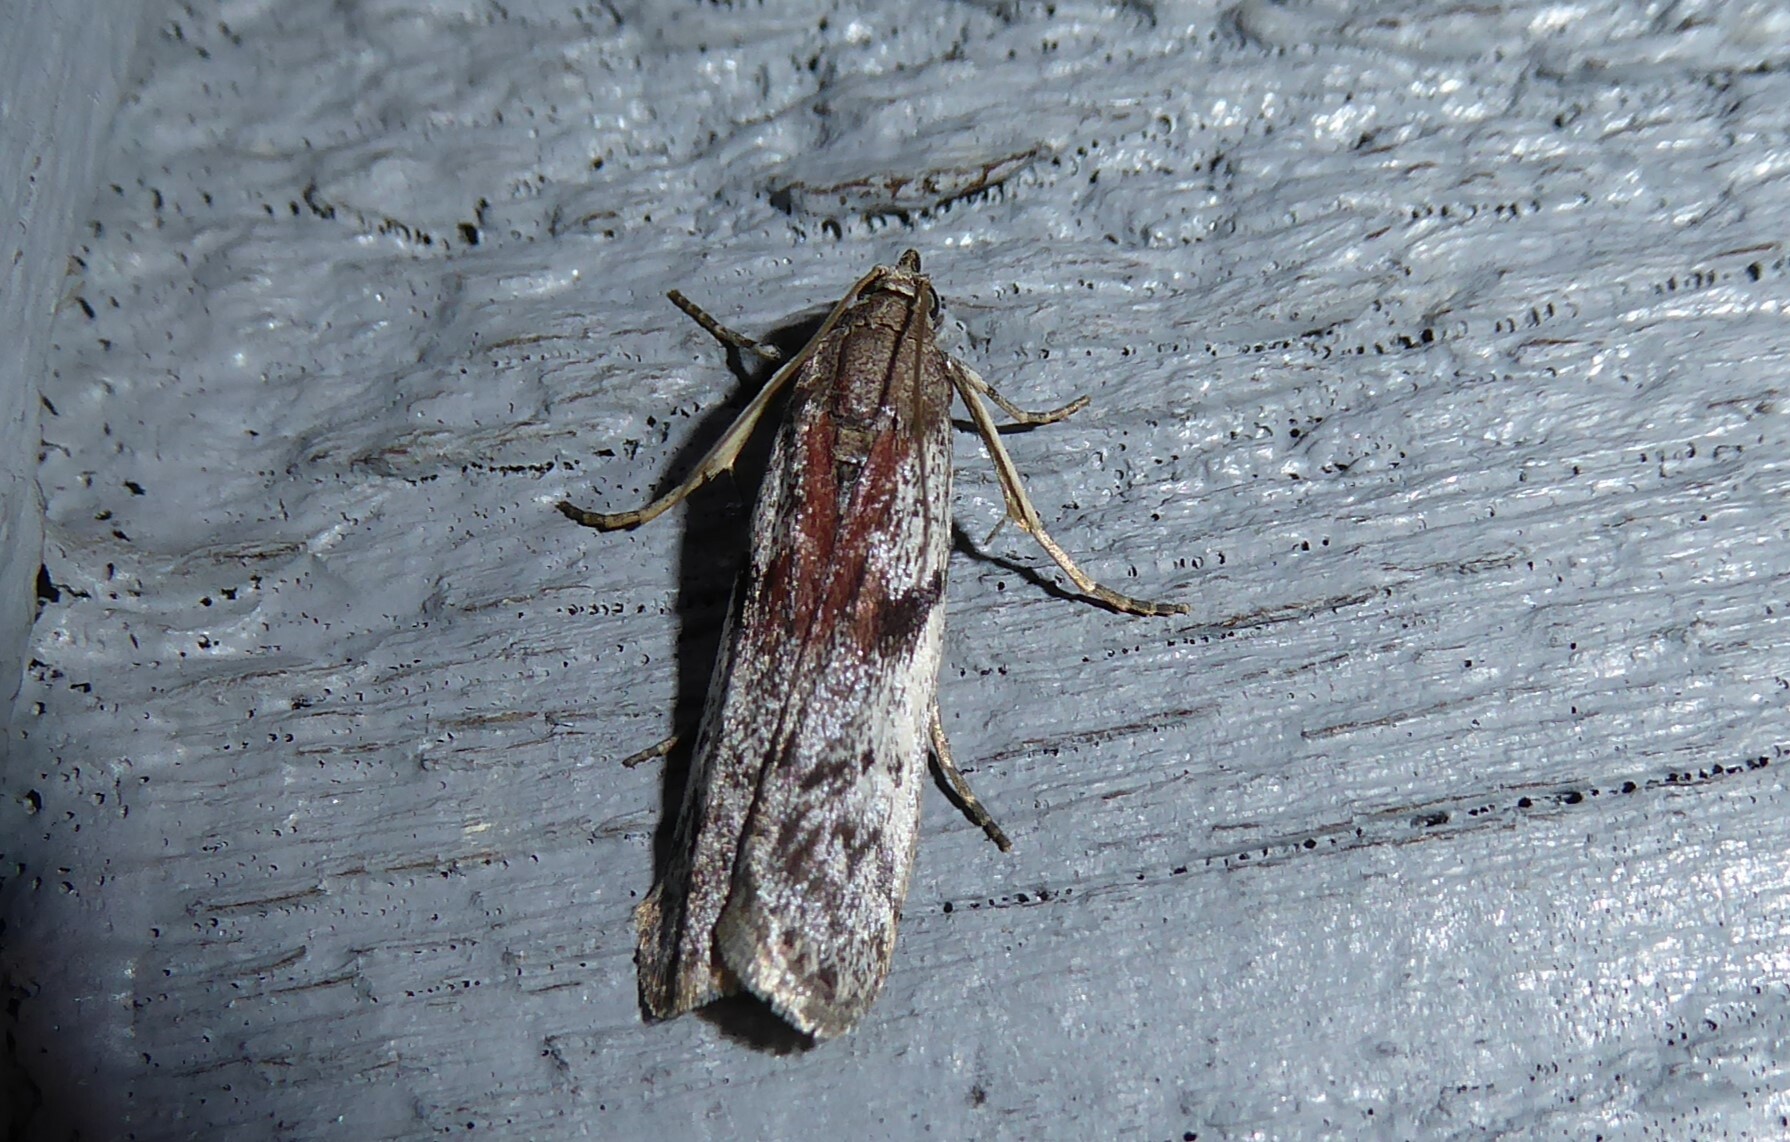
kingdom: Animalia
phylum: Arthropoda
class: Insecta
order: Lepidoptera
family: Pyralidae
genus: Patagoniodes
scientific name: Patagoniodes farinaria
